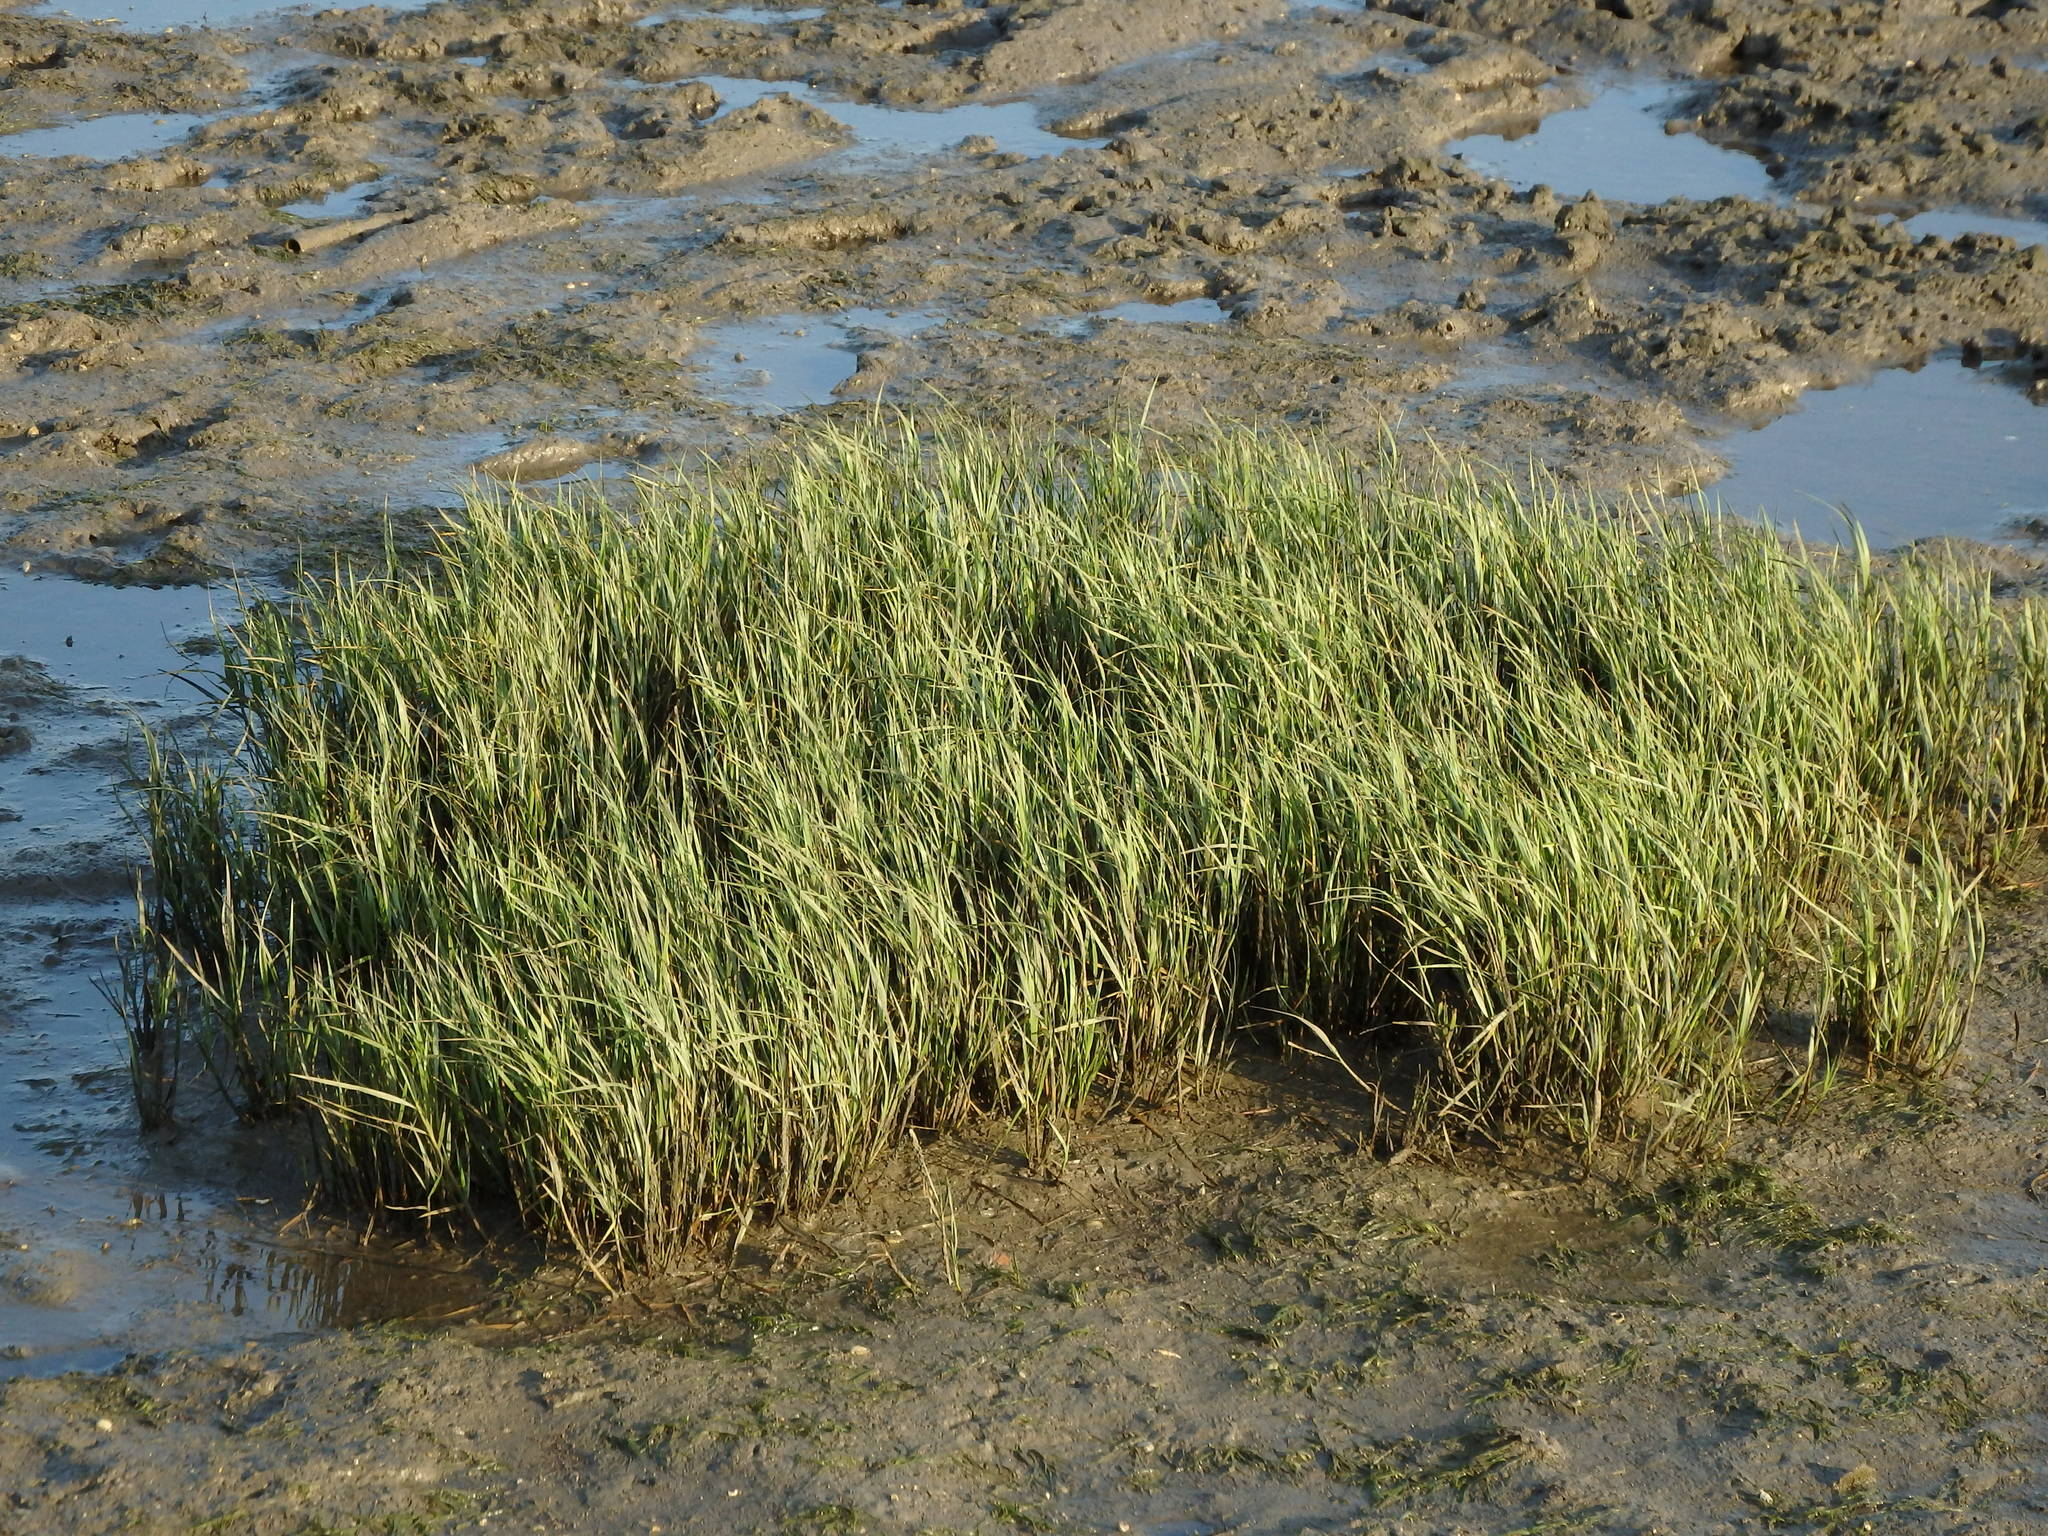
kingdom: Plantae
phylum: Tracheophyta
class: Liliopsida
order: Poales
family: Poaceae
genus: Sporobolus
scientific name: Sporobolus maritimus
